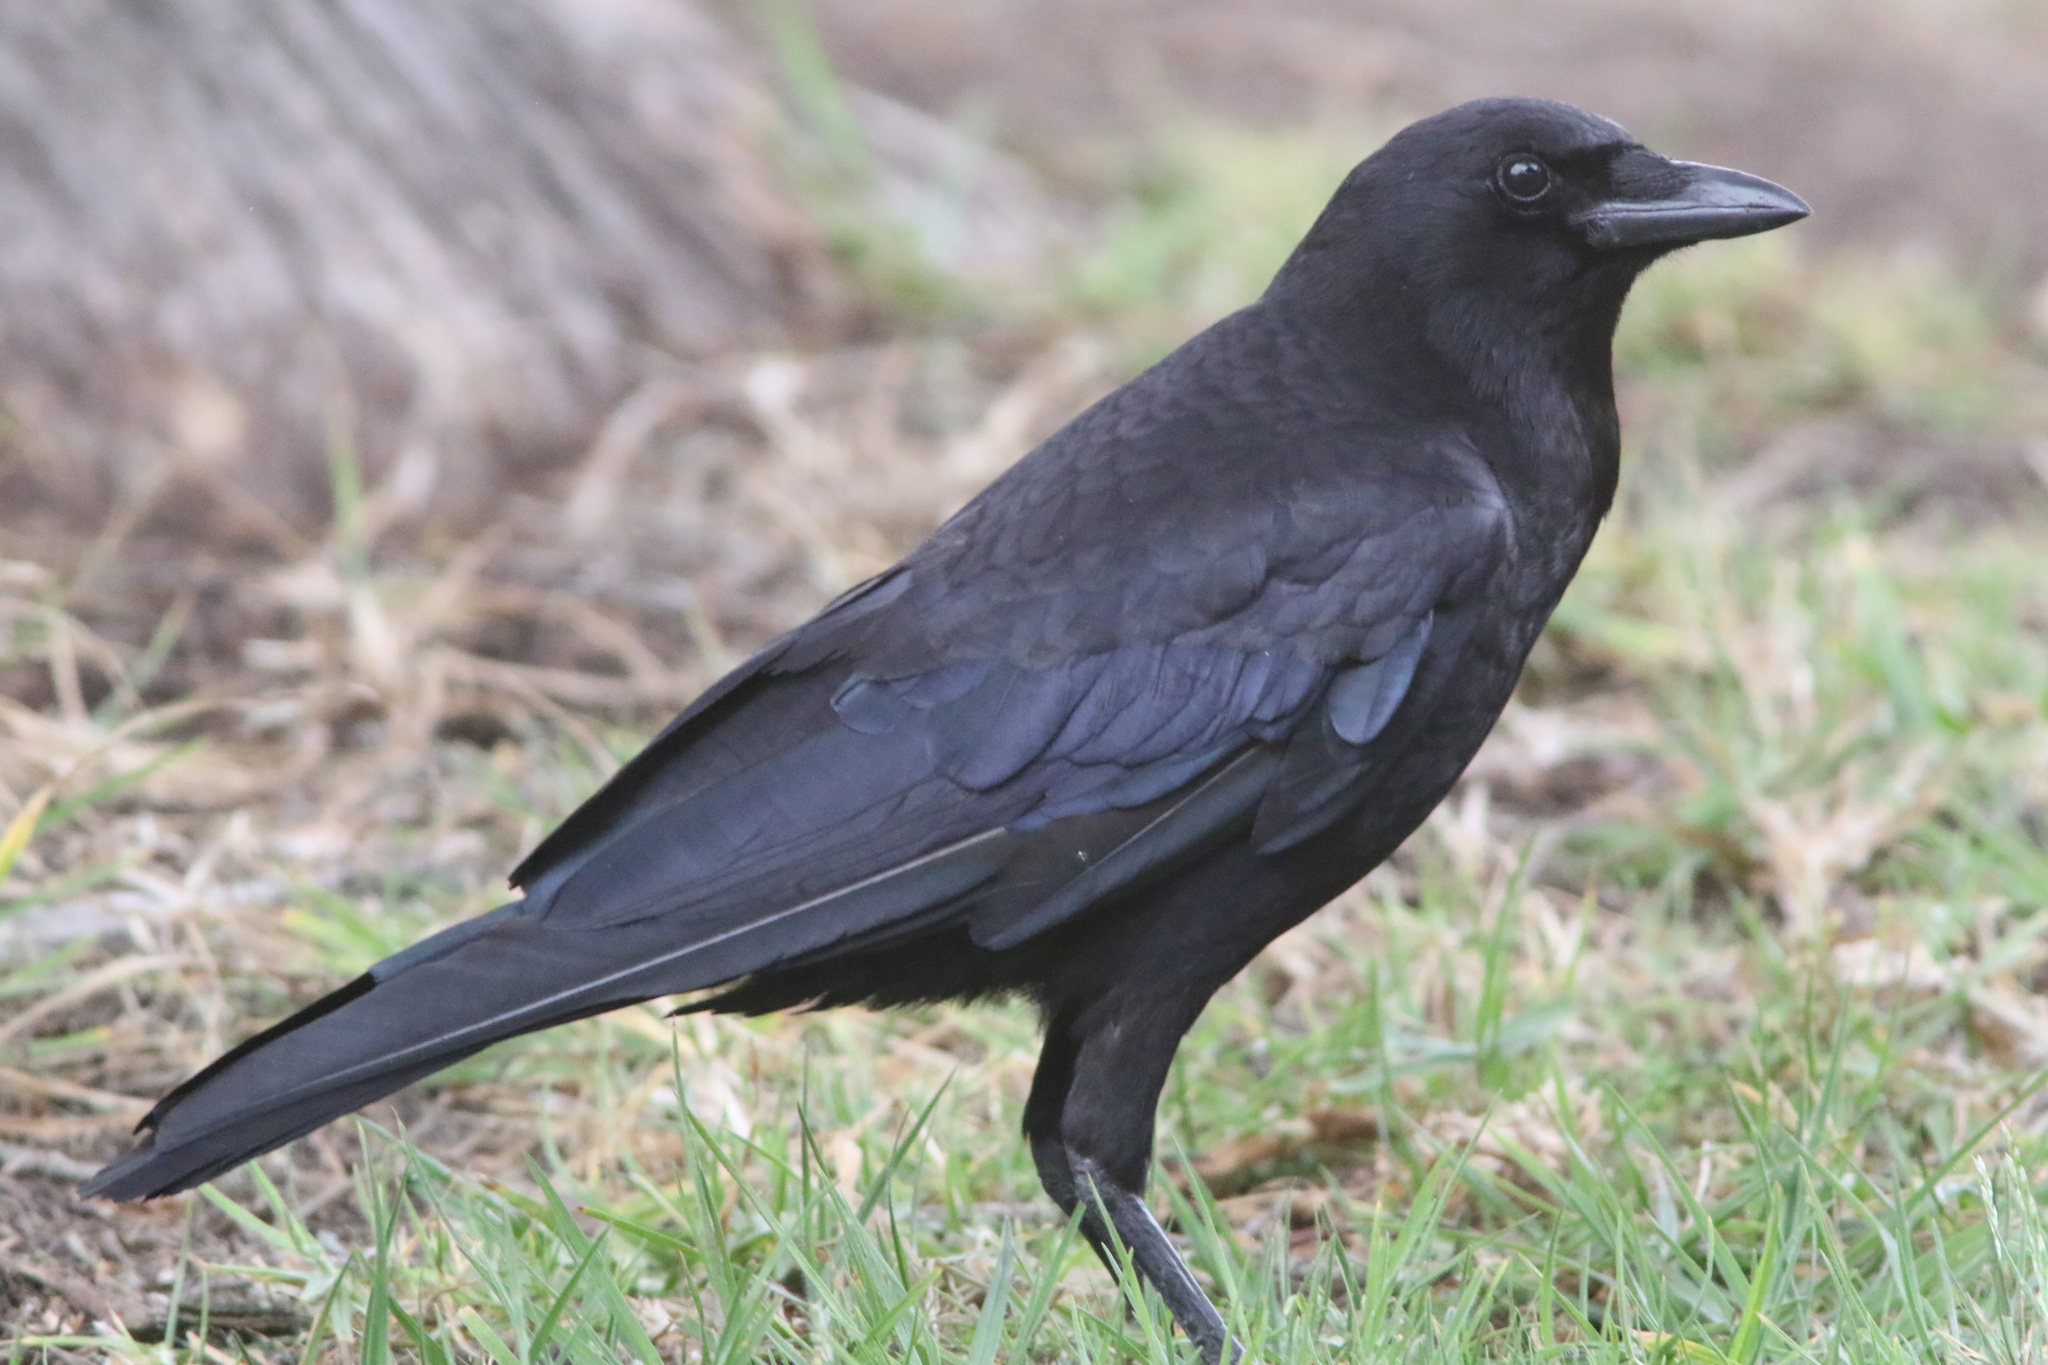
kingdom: Animalia
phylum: Chordata
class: Aves
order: Passeriformes
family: Corvidae
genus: Corvus
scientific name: Corvus brachyrhynchos
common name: American crow
